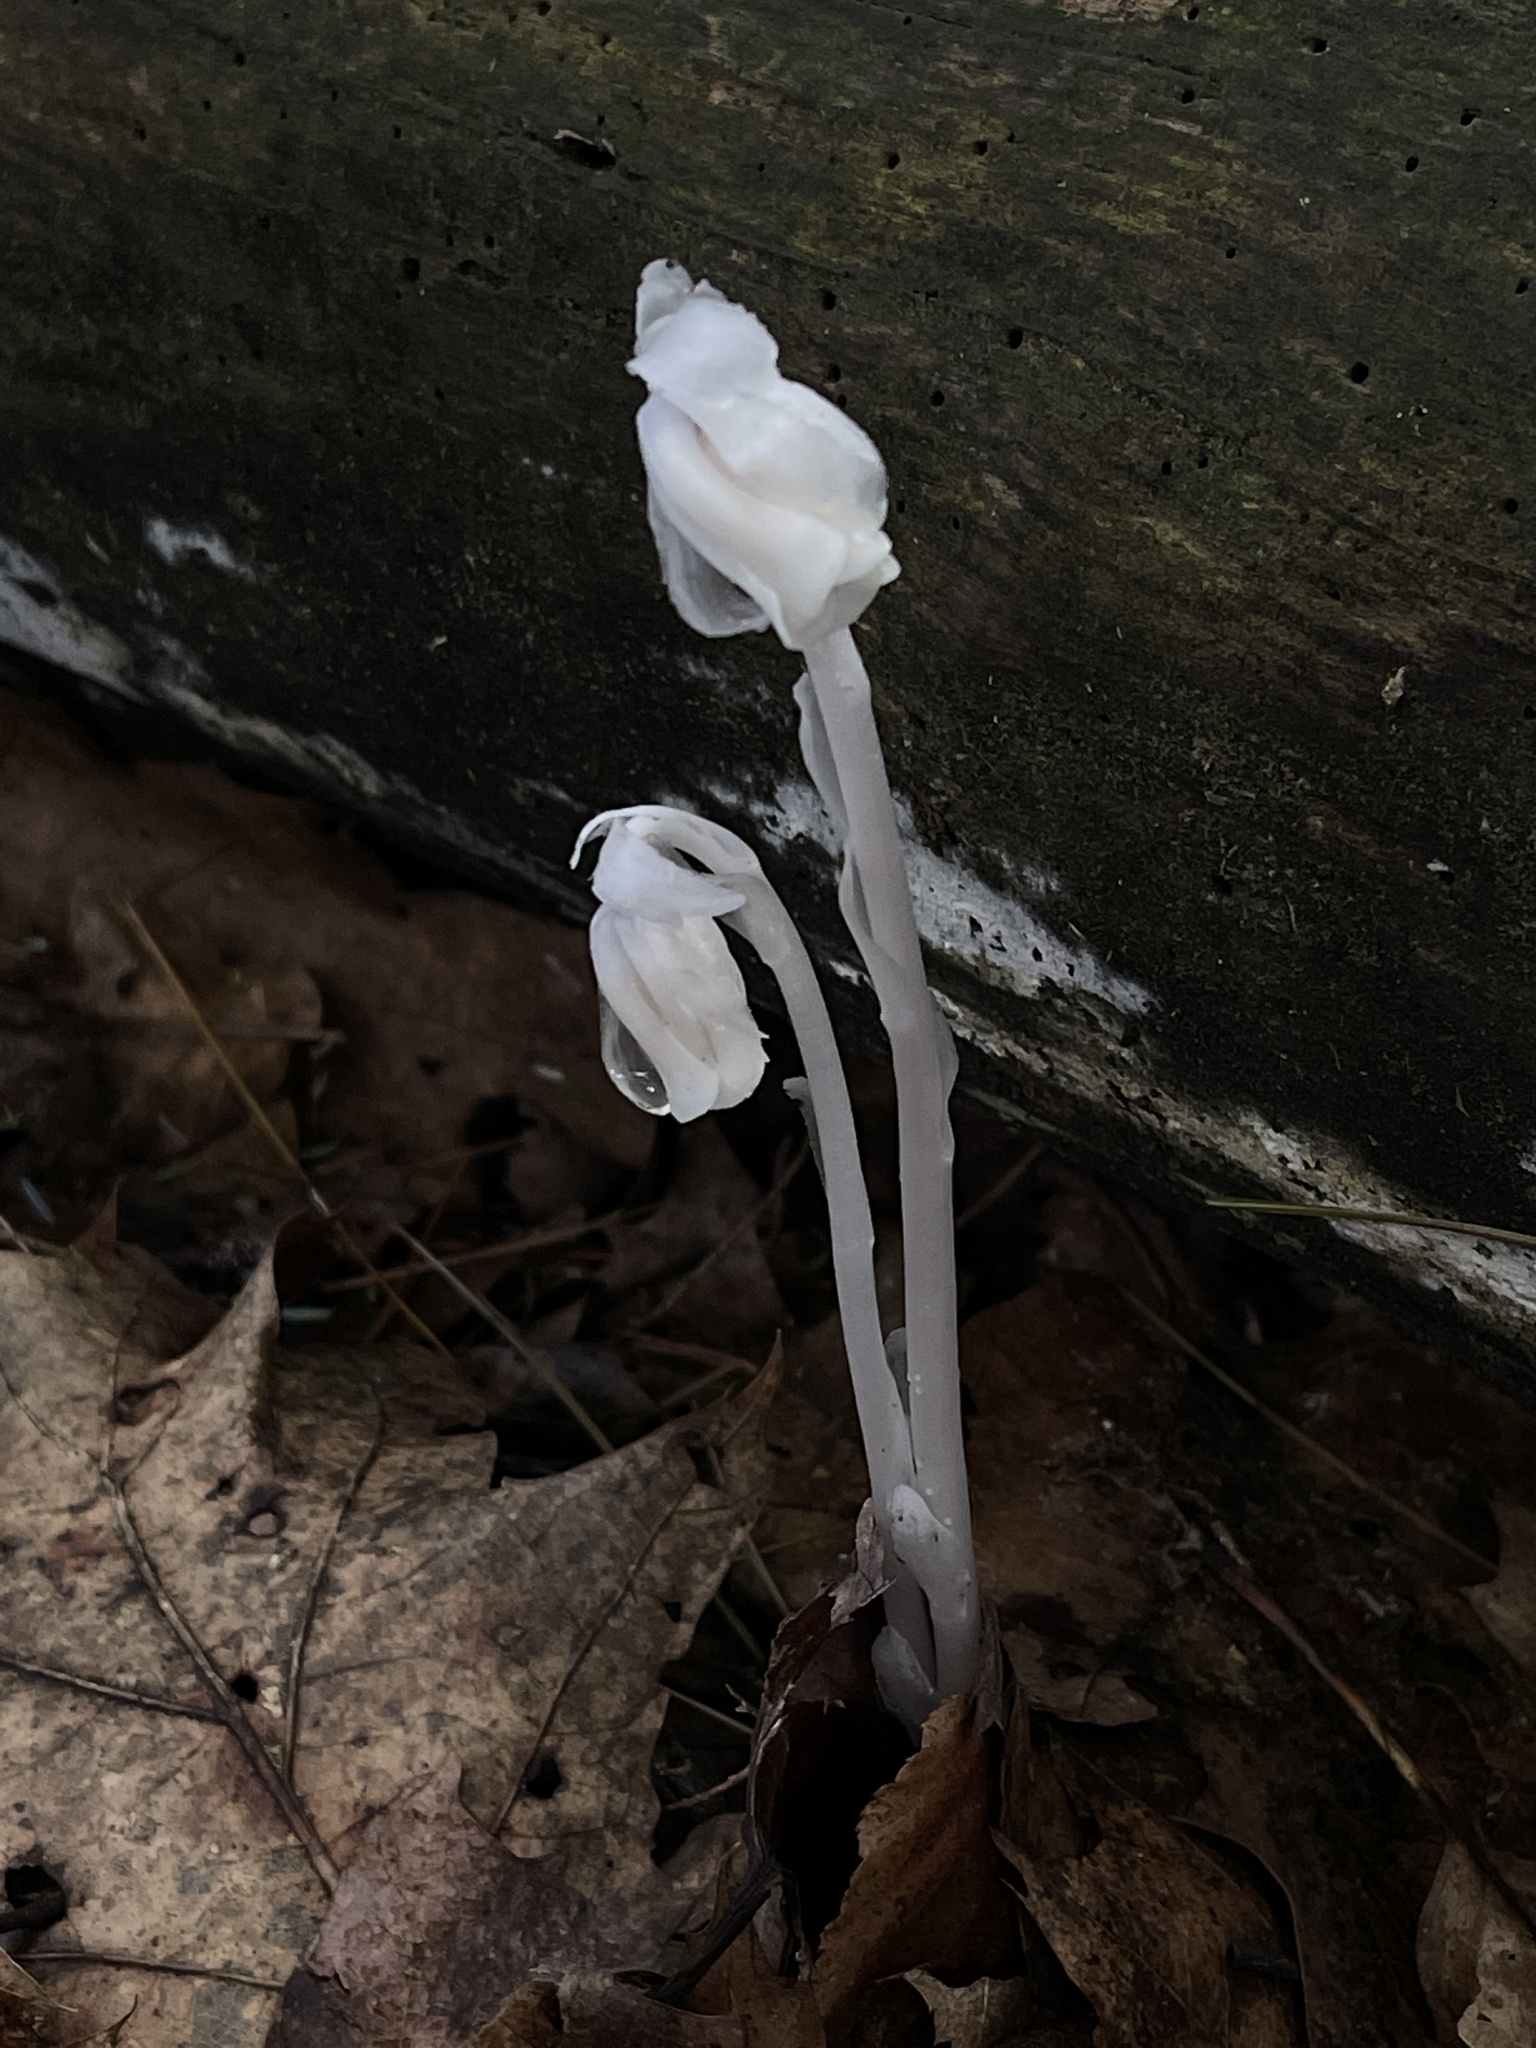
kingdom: Plantae
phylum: Tracheophyta
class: Magnoliopsida
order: Ericales
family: Ericaceae
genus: Monotropa
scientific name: Monotropa uniflora
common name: Convulsion root
